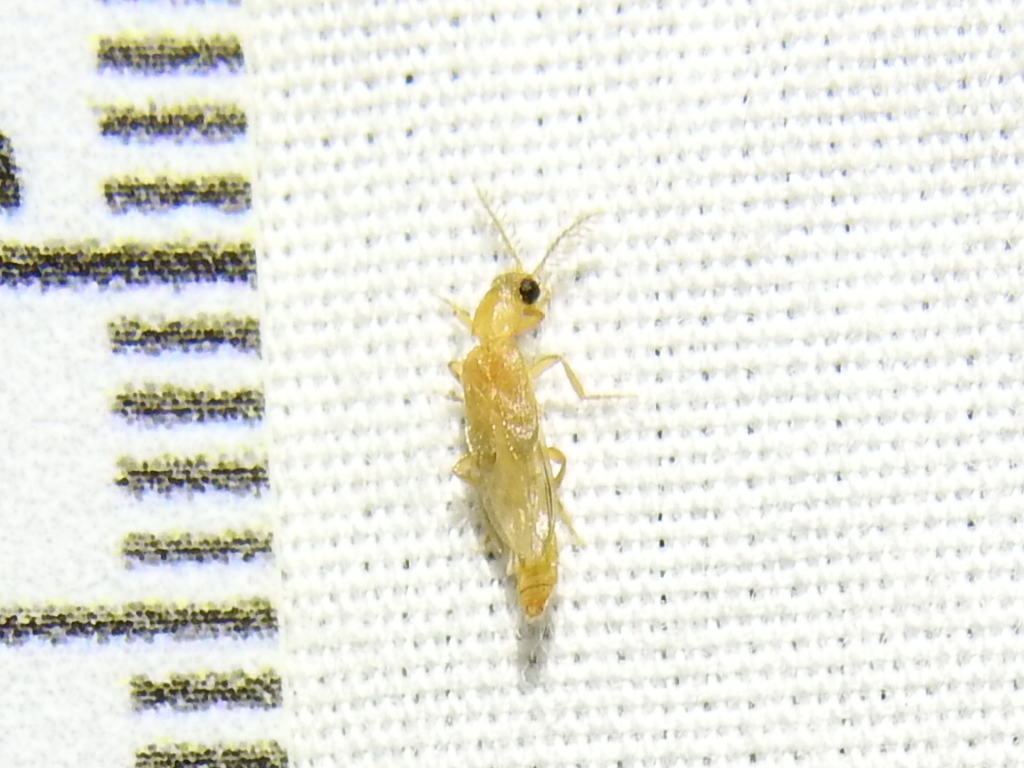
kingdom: Animalia
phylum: Arthropoda
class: Insecta
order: Coleoptera
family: Phengodidae
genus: Cenophengus
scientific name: Cenophengus pallidus
